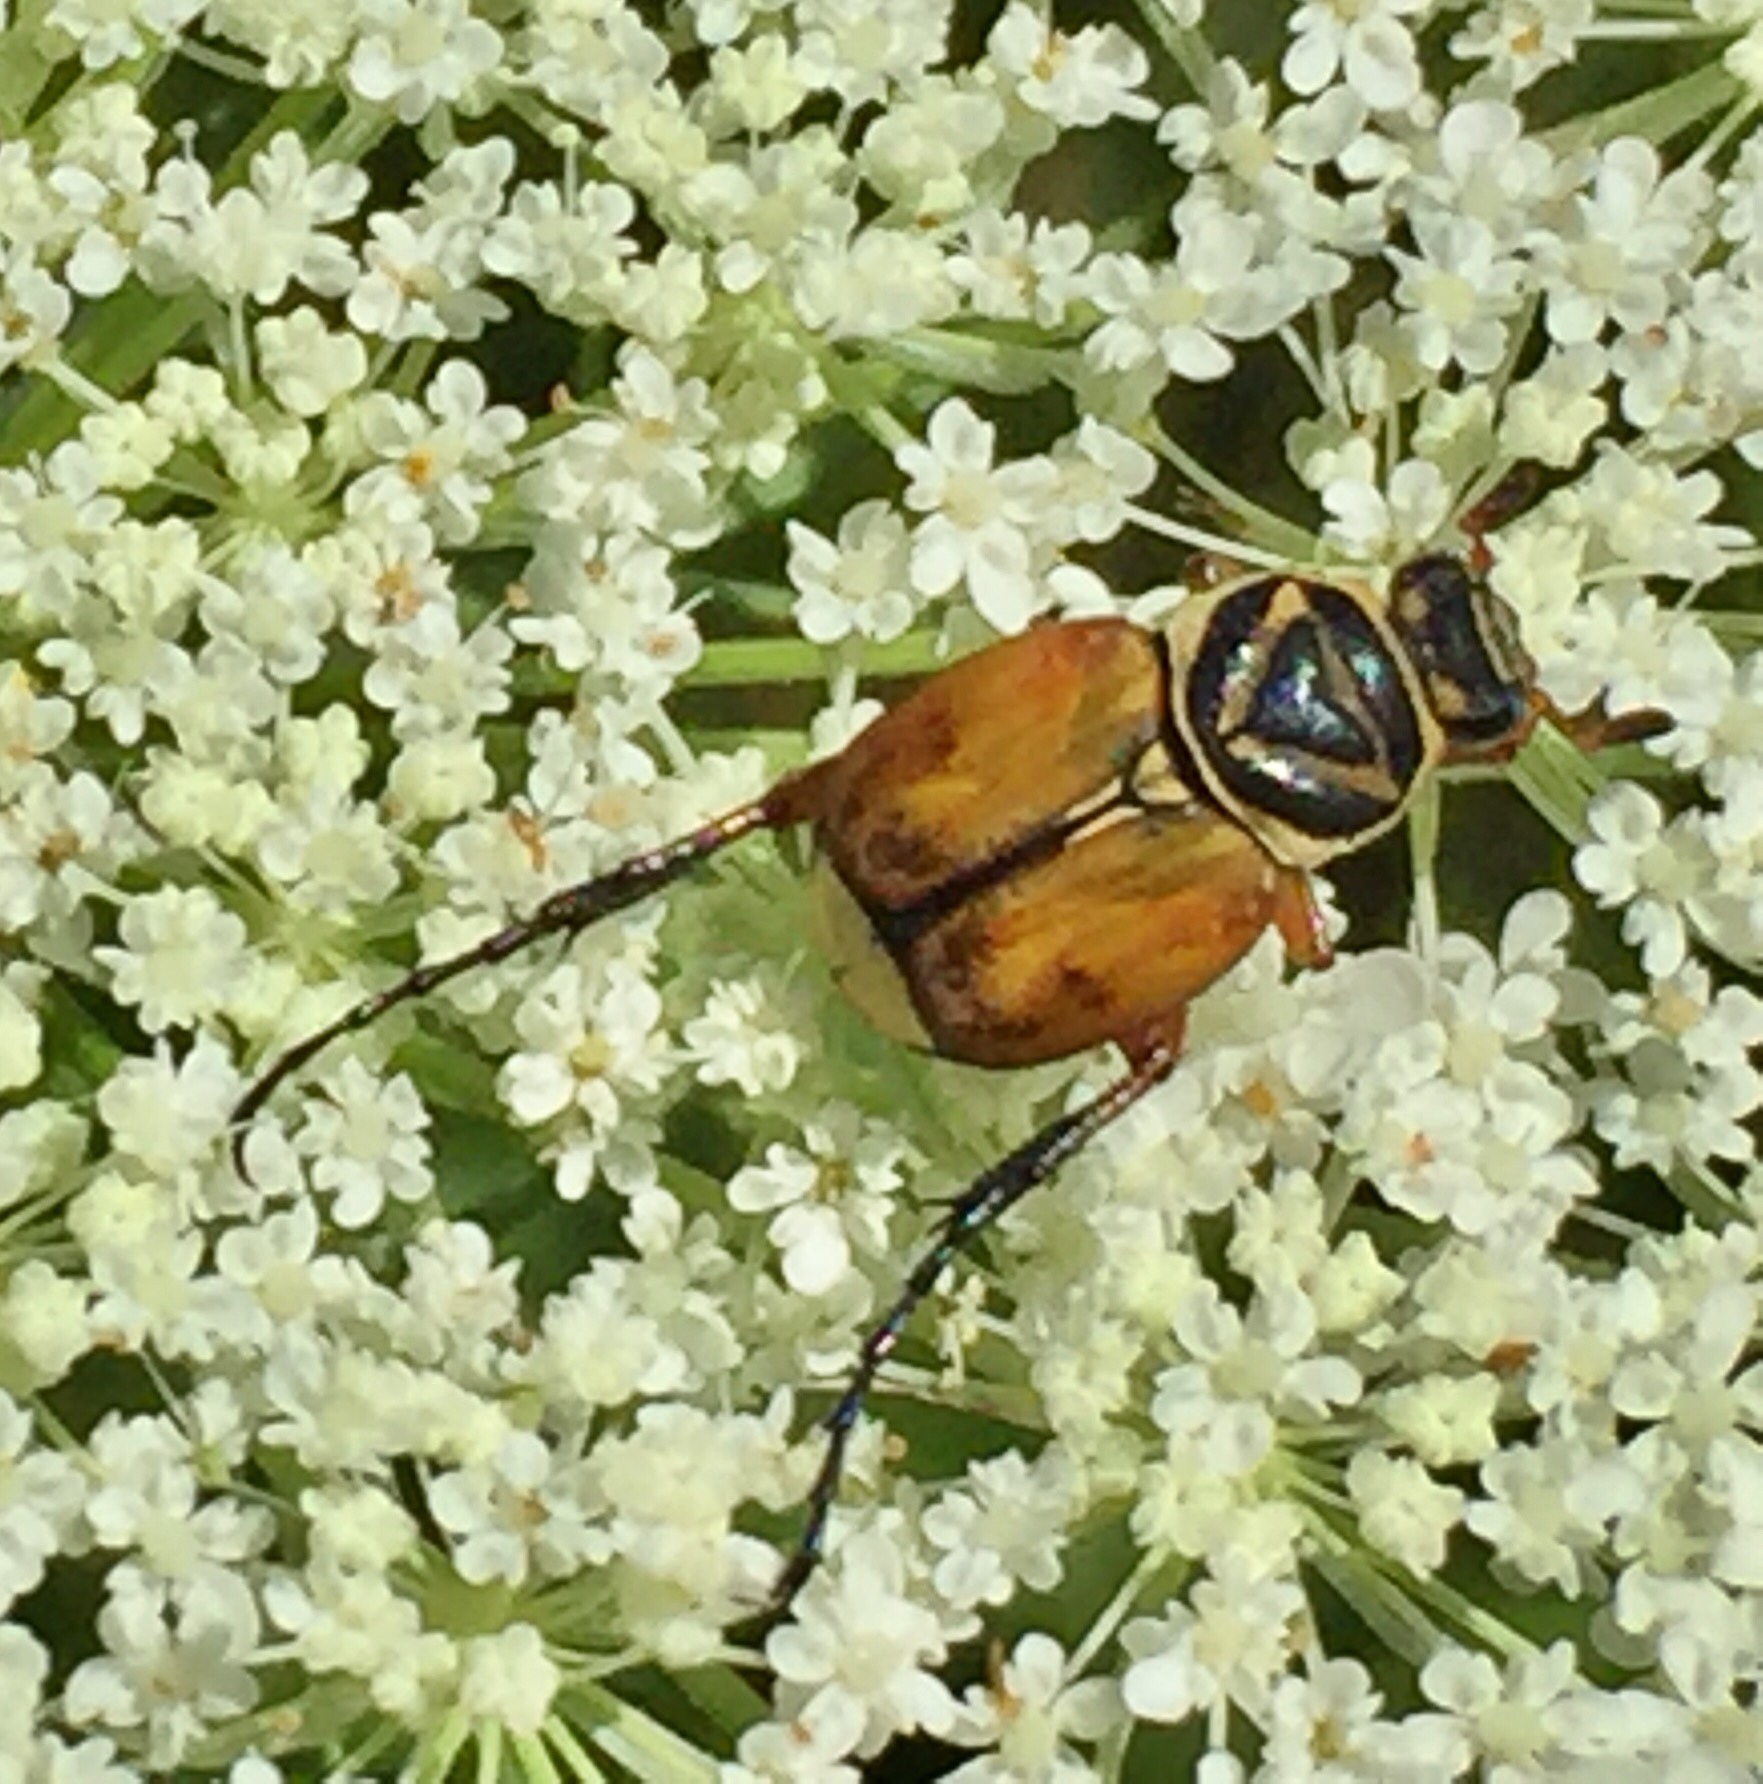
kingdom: Animalia
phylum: Arthropoda
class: Insecta
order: Coleoptera
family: Scarabaeidae
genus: Trigonopeltastes
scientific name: Trigonopeltastes delta
